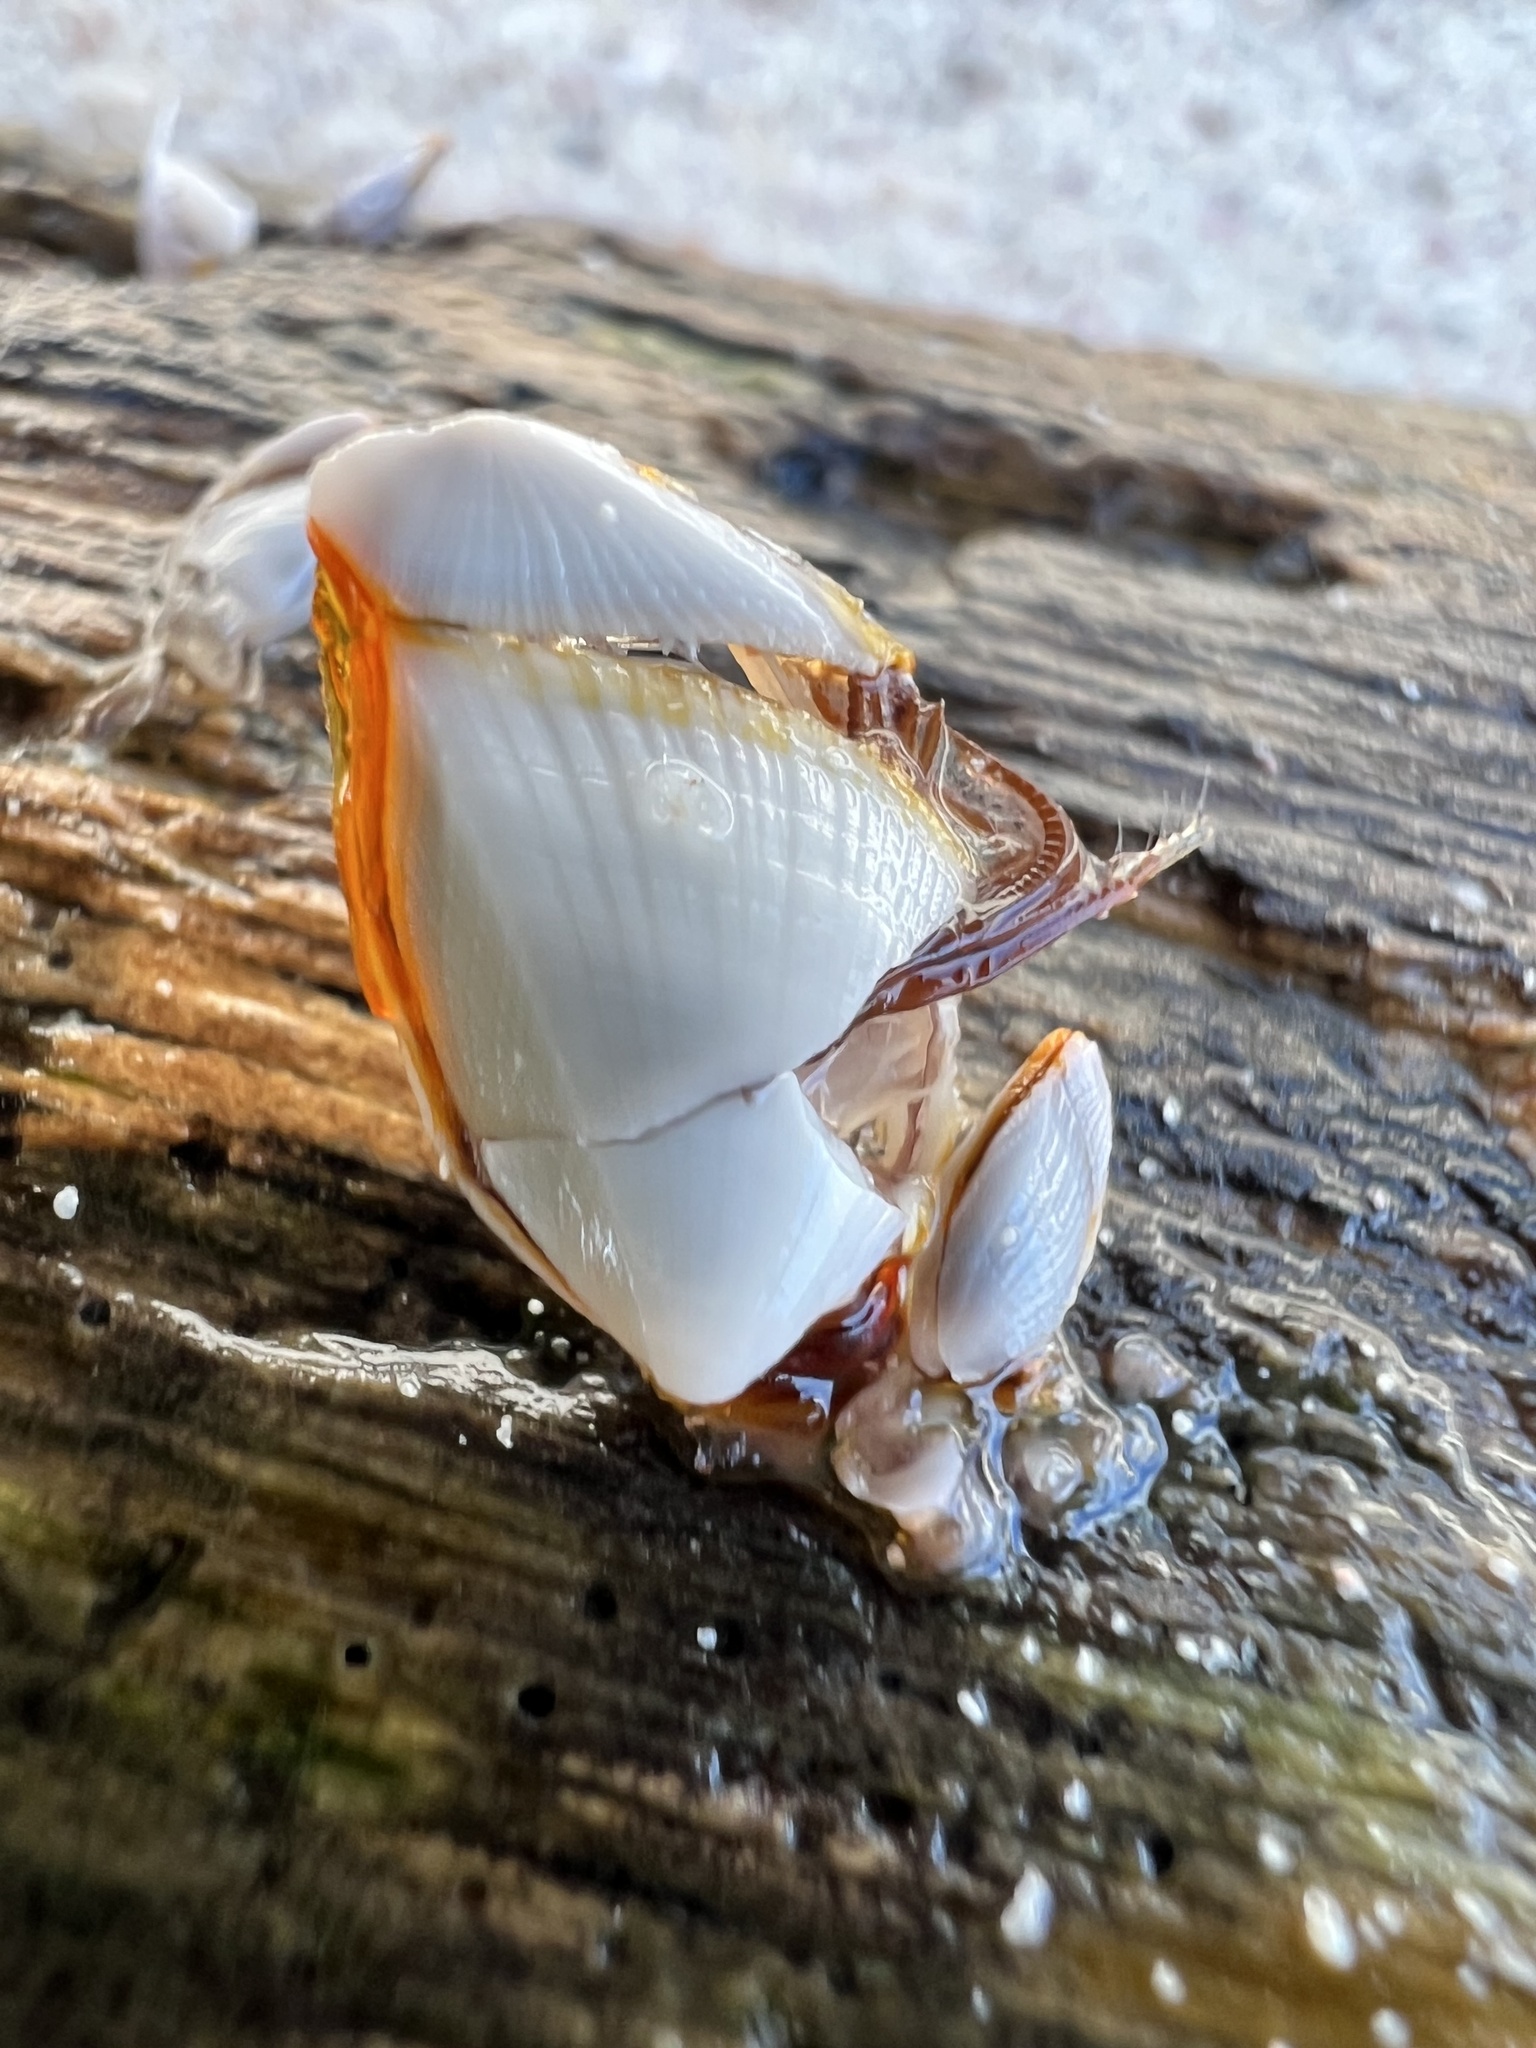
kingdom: Animalia
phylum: Arthropoda
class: Maxillopoda
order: Pedunculata
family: Lepadidae
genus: Lepas
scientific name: Lepas anserifera
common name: Goose barnacle
